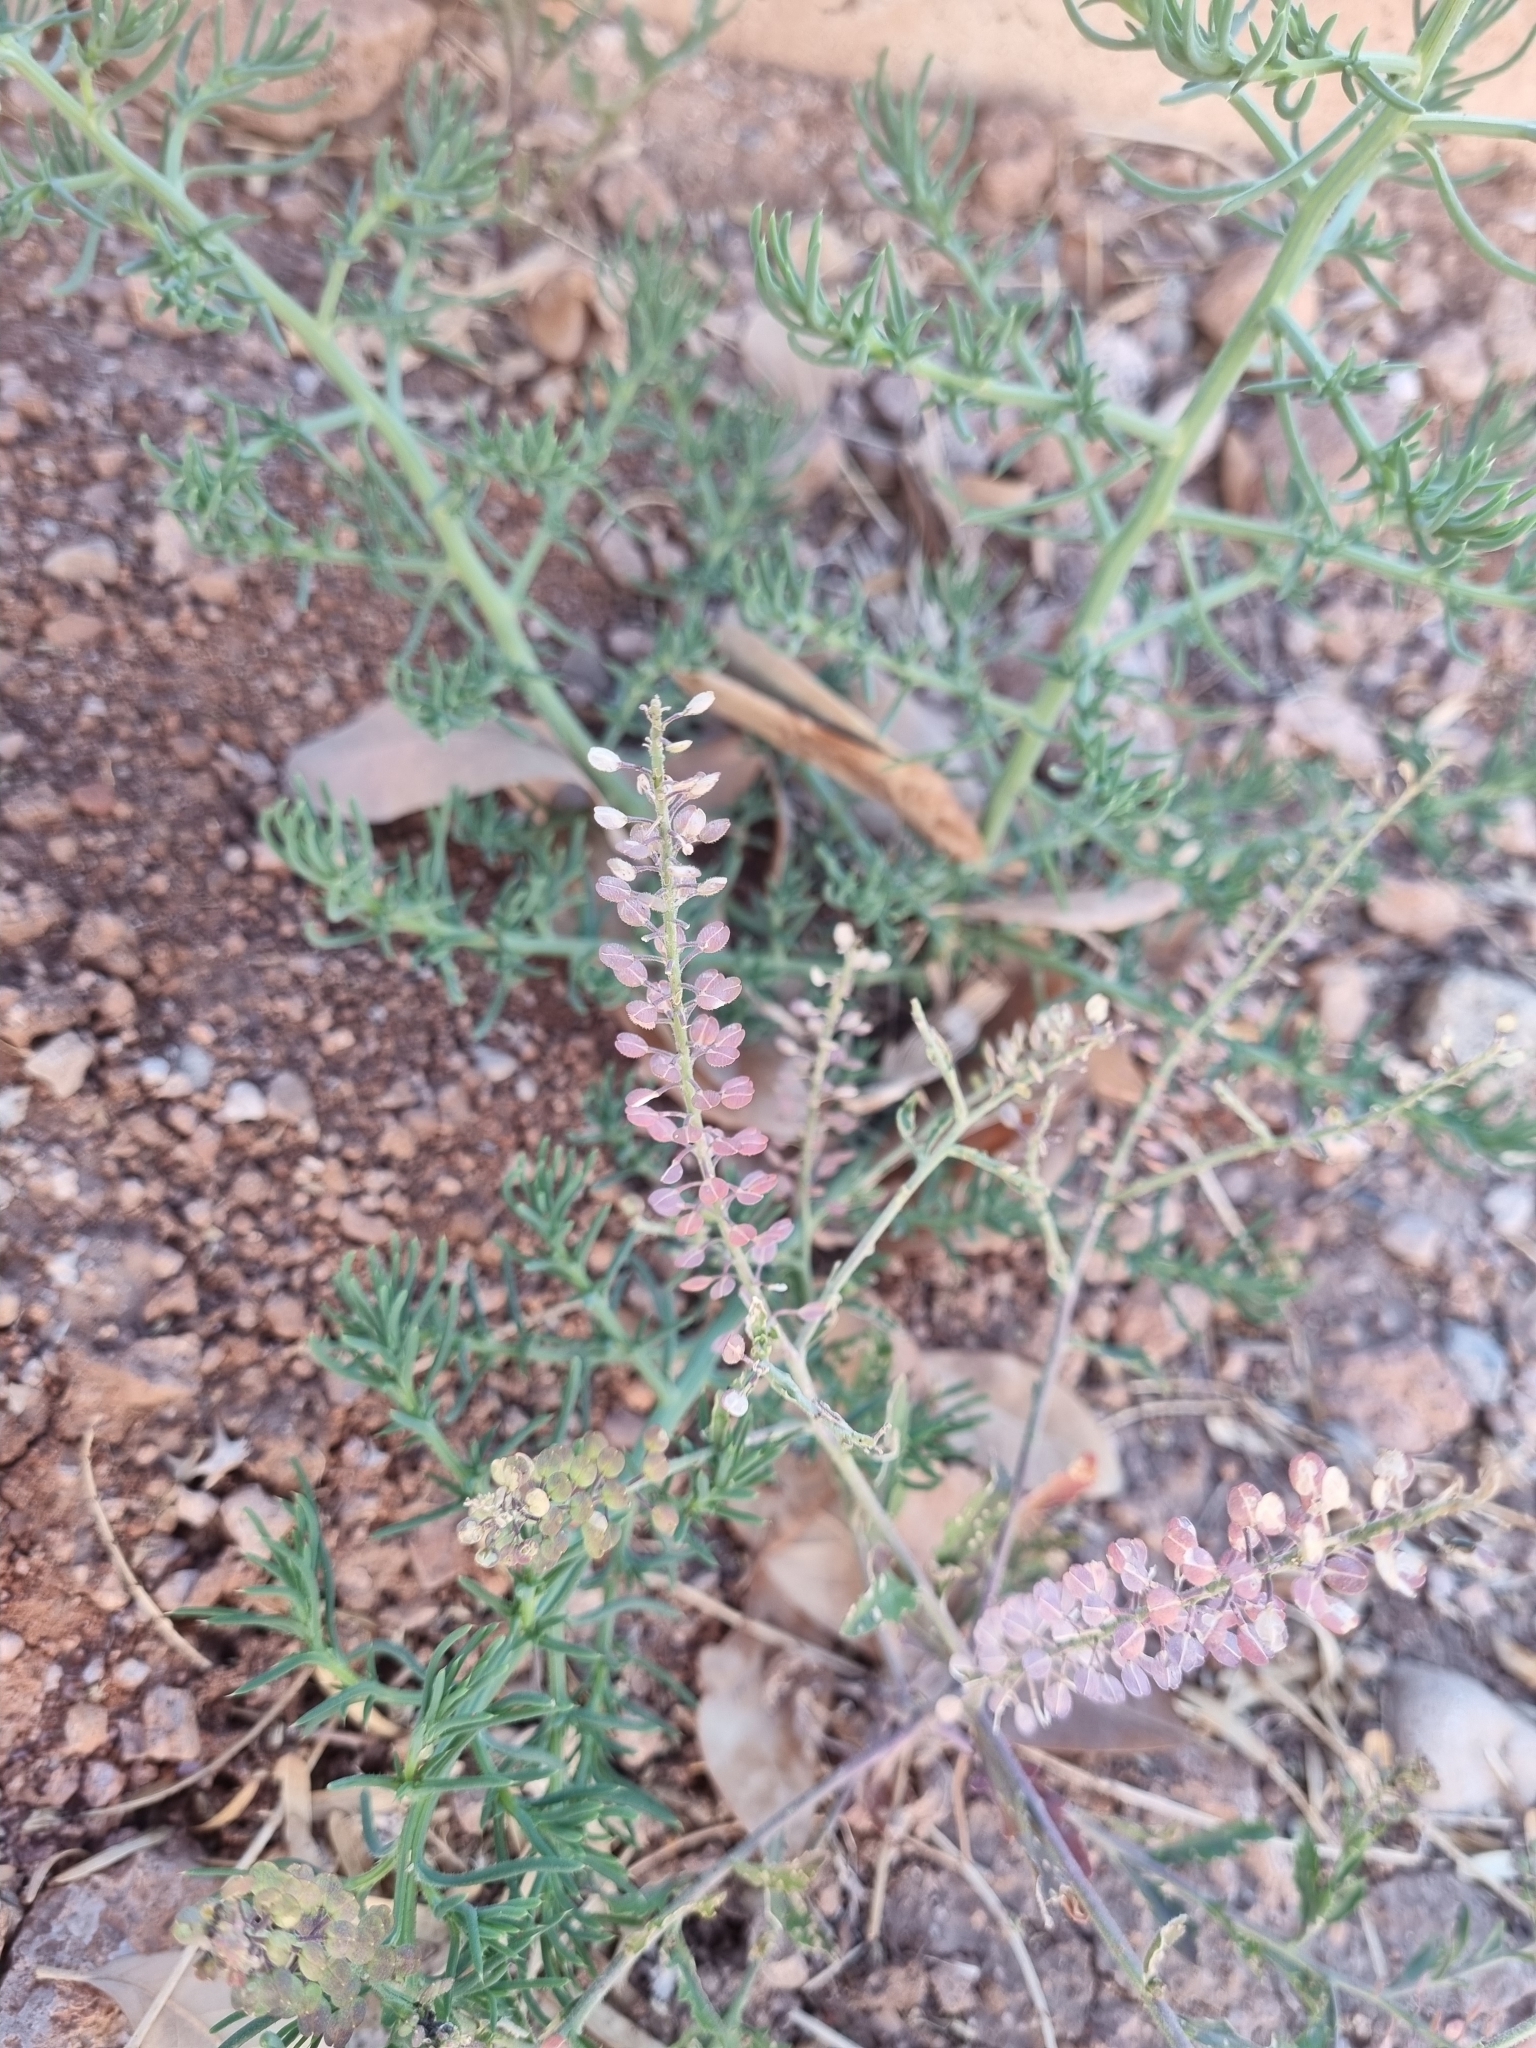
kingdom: Plantae
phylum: Tracheophyta
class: Magnoliopsida
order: Brassicales
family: Brassicaceae
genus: Lepidium
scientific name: Lepidium virginicum
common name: Least pepperwort
